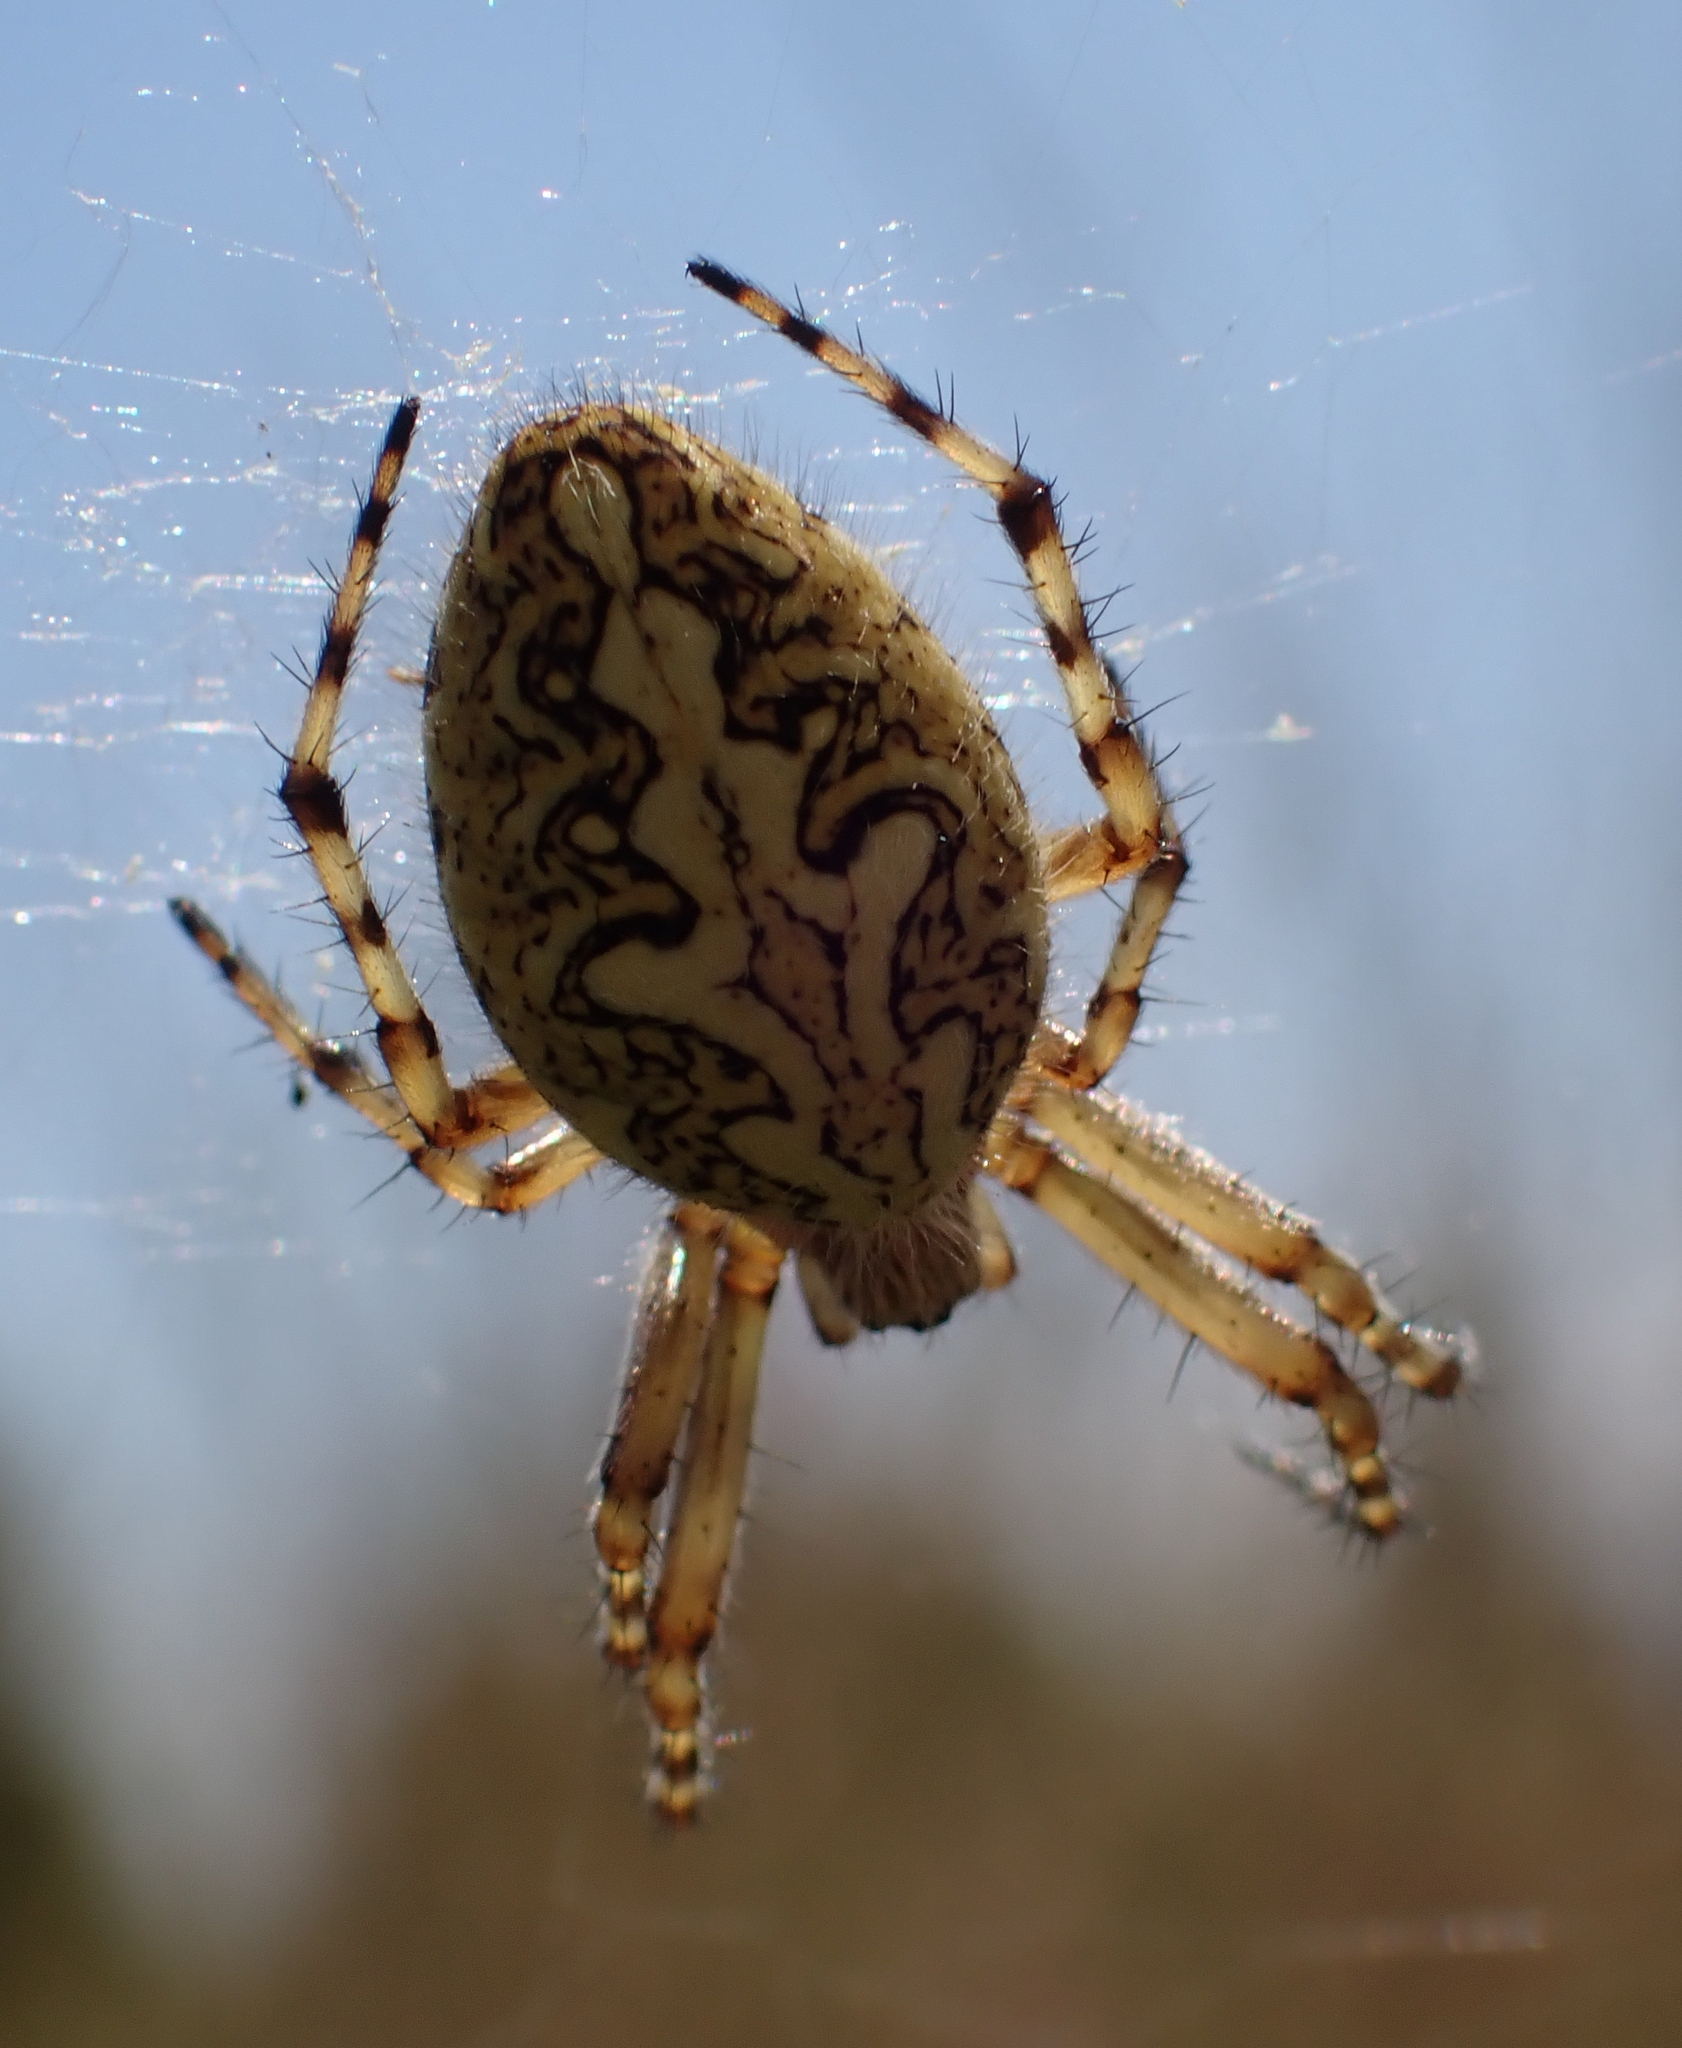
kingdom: Animalia
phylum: Arthropoda
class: Arachnida
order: Araneae
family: Araneidae
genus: Aculepeira
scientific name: Aculepeira ceropegia
